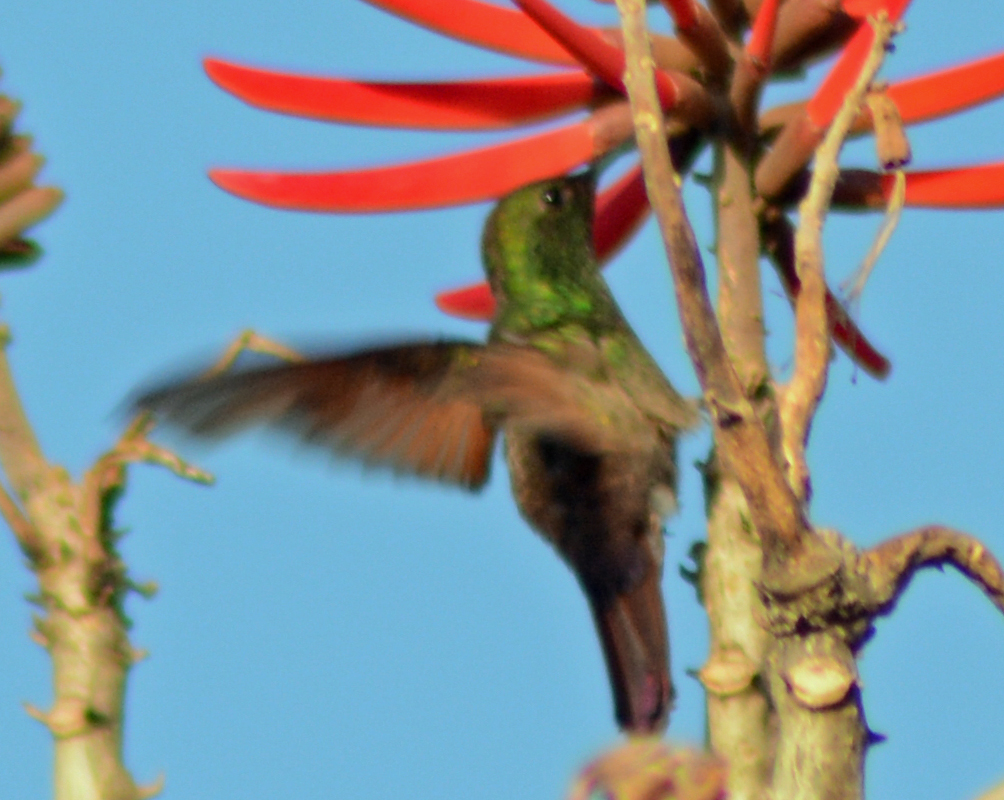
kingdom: Animalia
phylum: Chordata
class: Aves
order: Apodiformes
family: Trochilidae
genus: Saucerottia
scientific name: Saucerottia beryllina
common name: Berylline hummingbird
